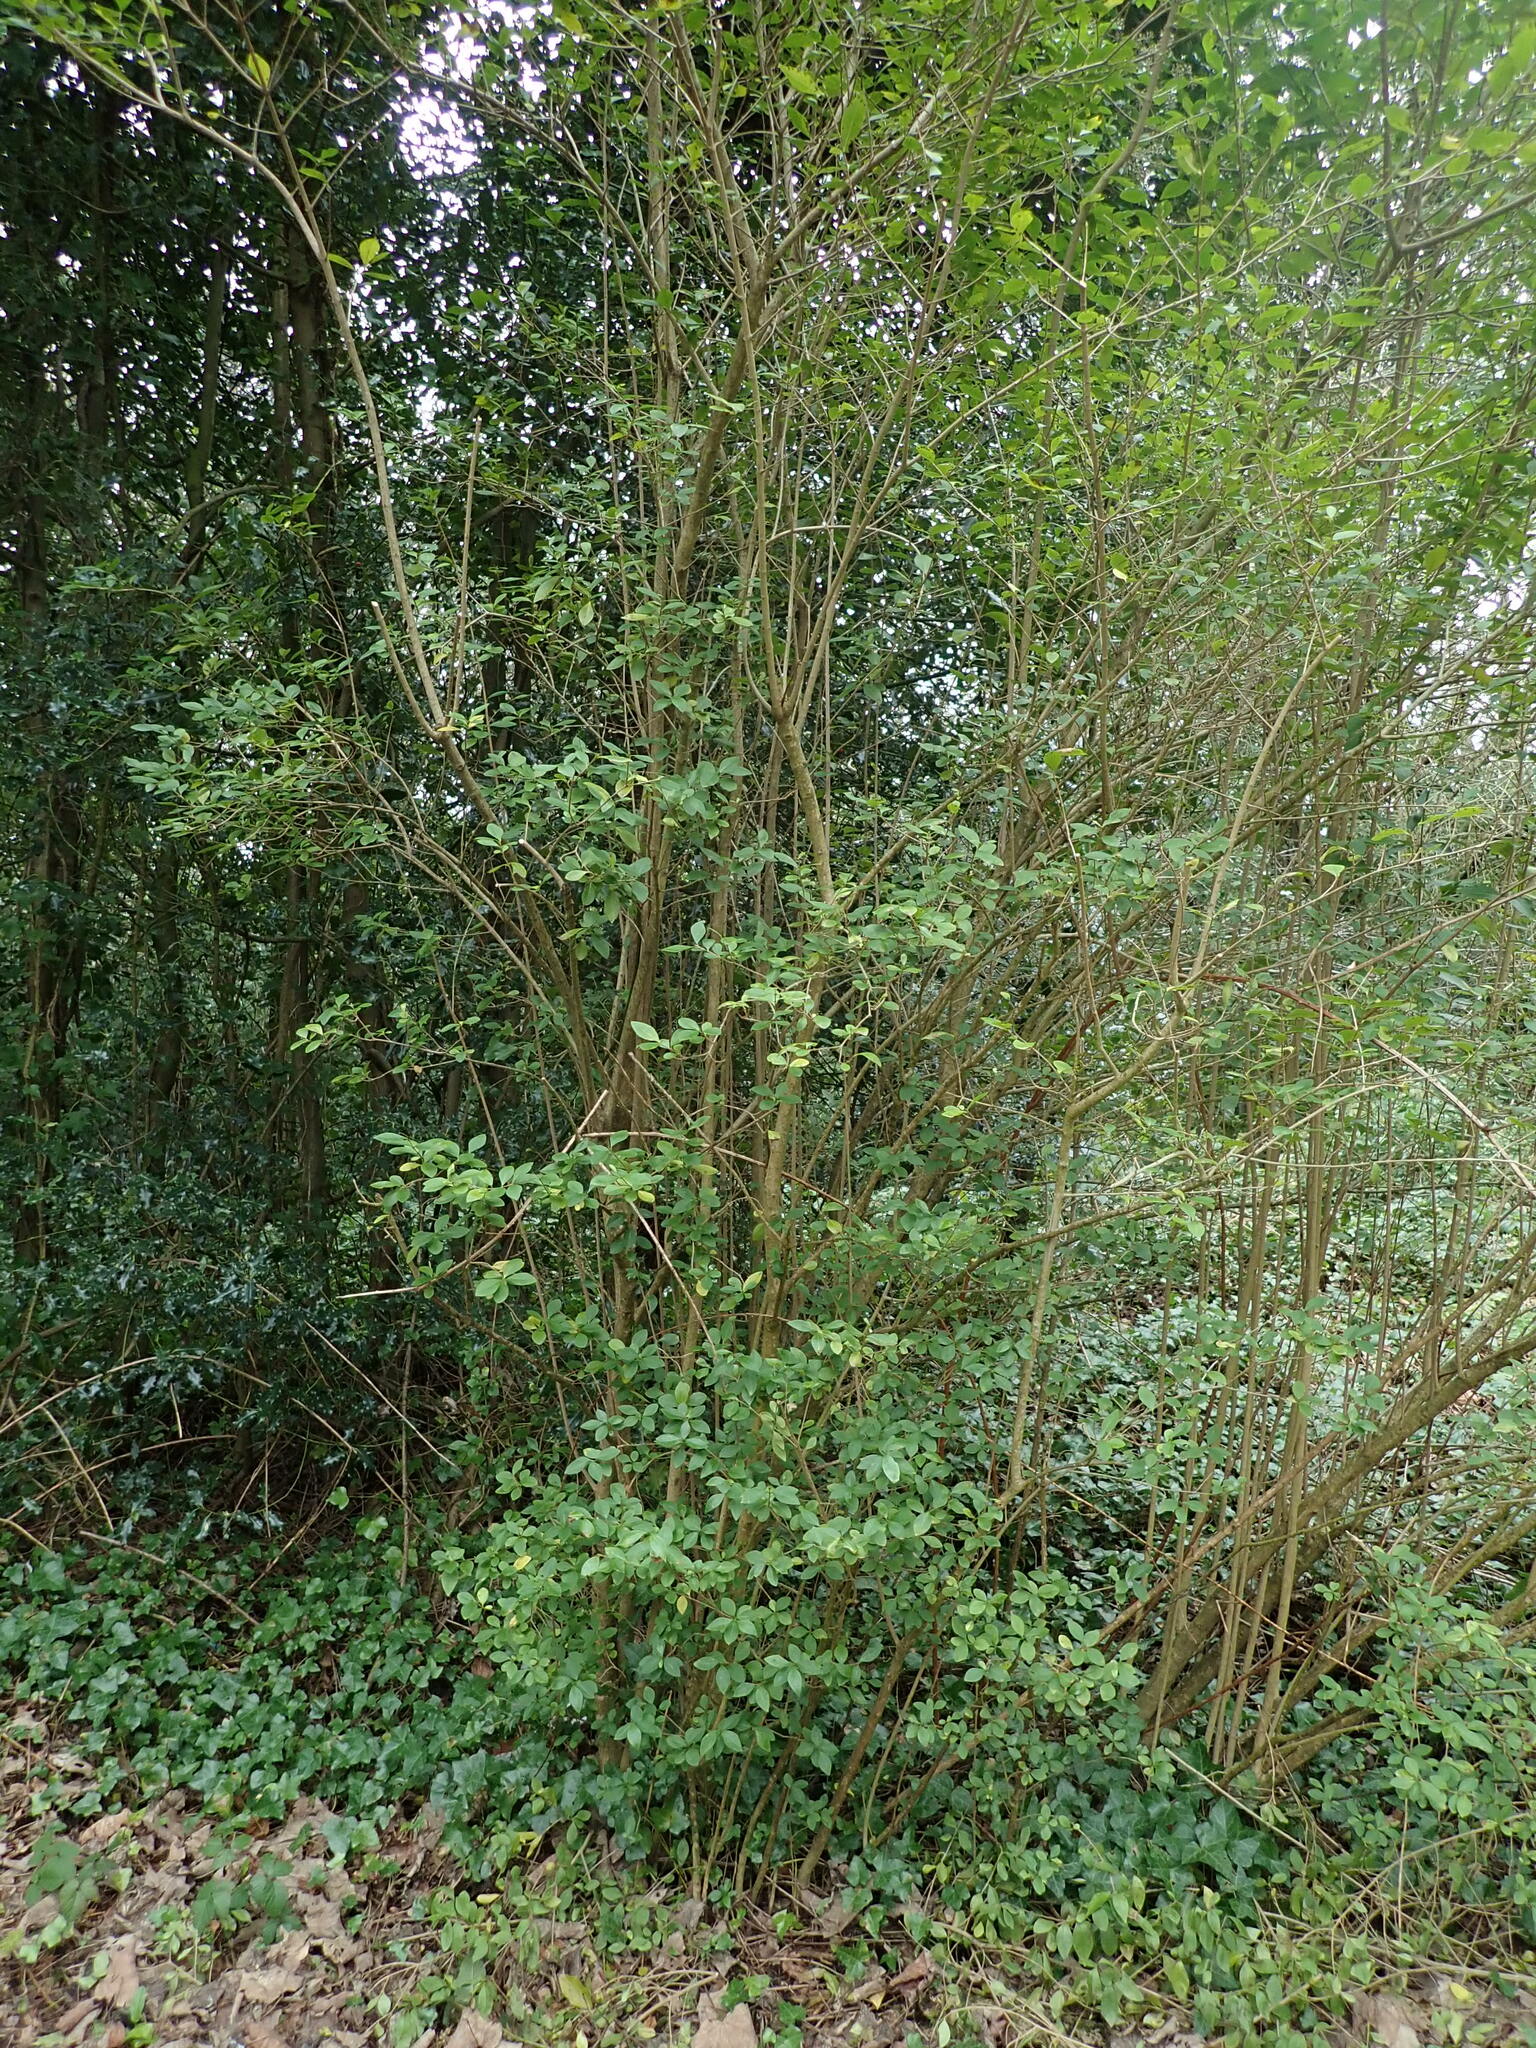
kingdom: Plantae
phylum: Tracheophyta
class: Magnoliopsida
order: Lamiales
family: Oleaceae
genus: Ligustrum
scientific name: Ligustrum ovalifolium
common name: California privet
